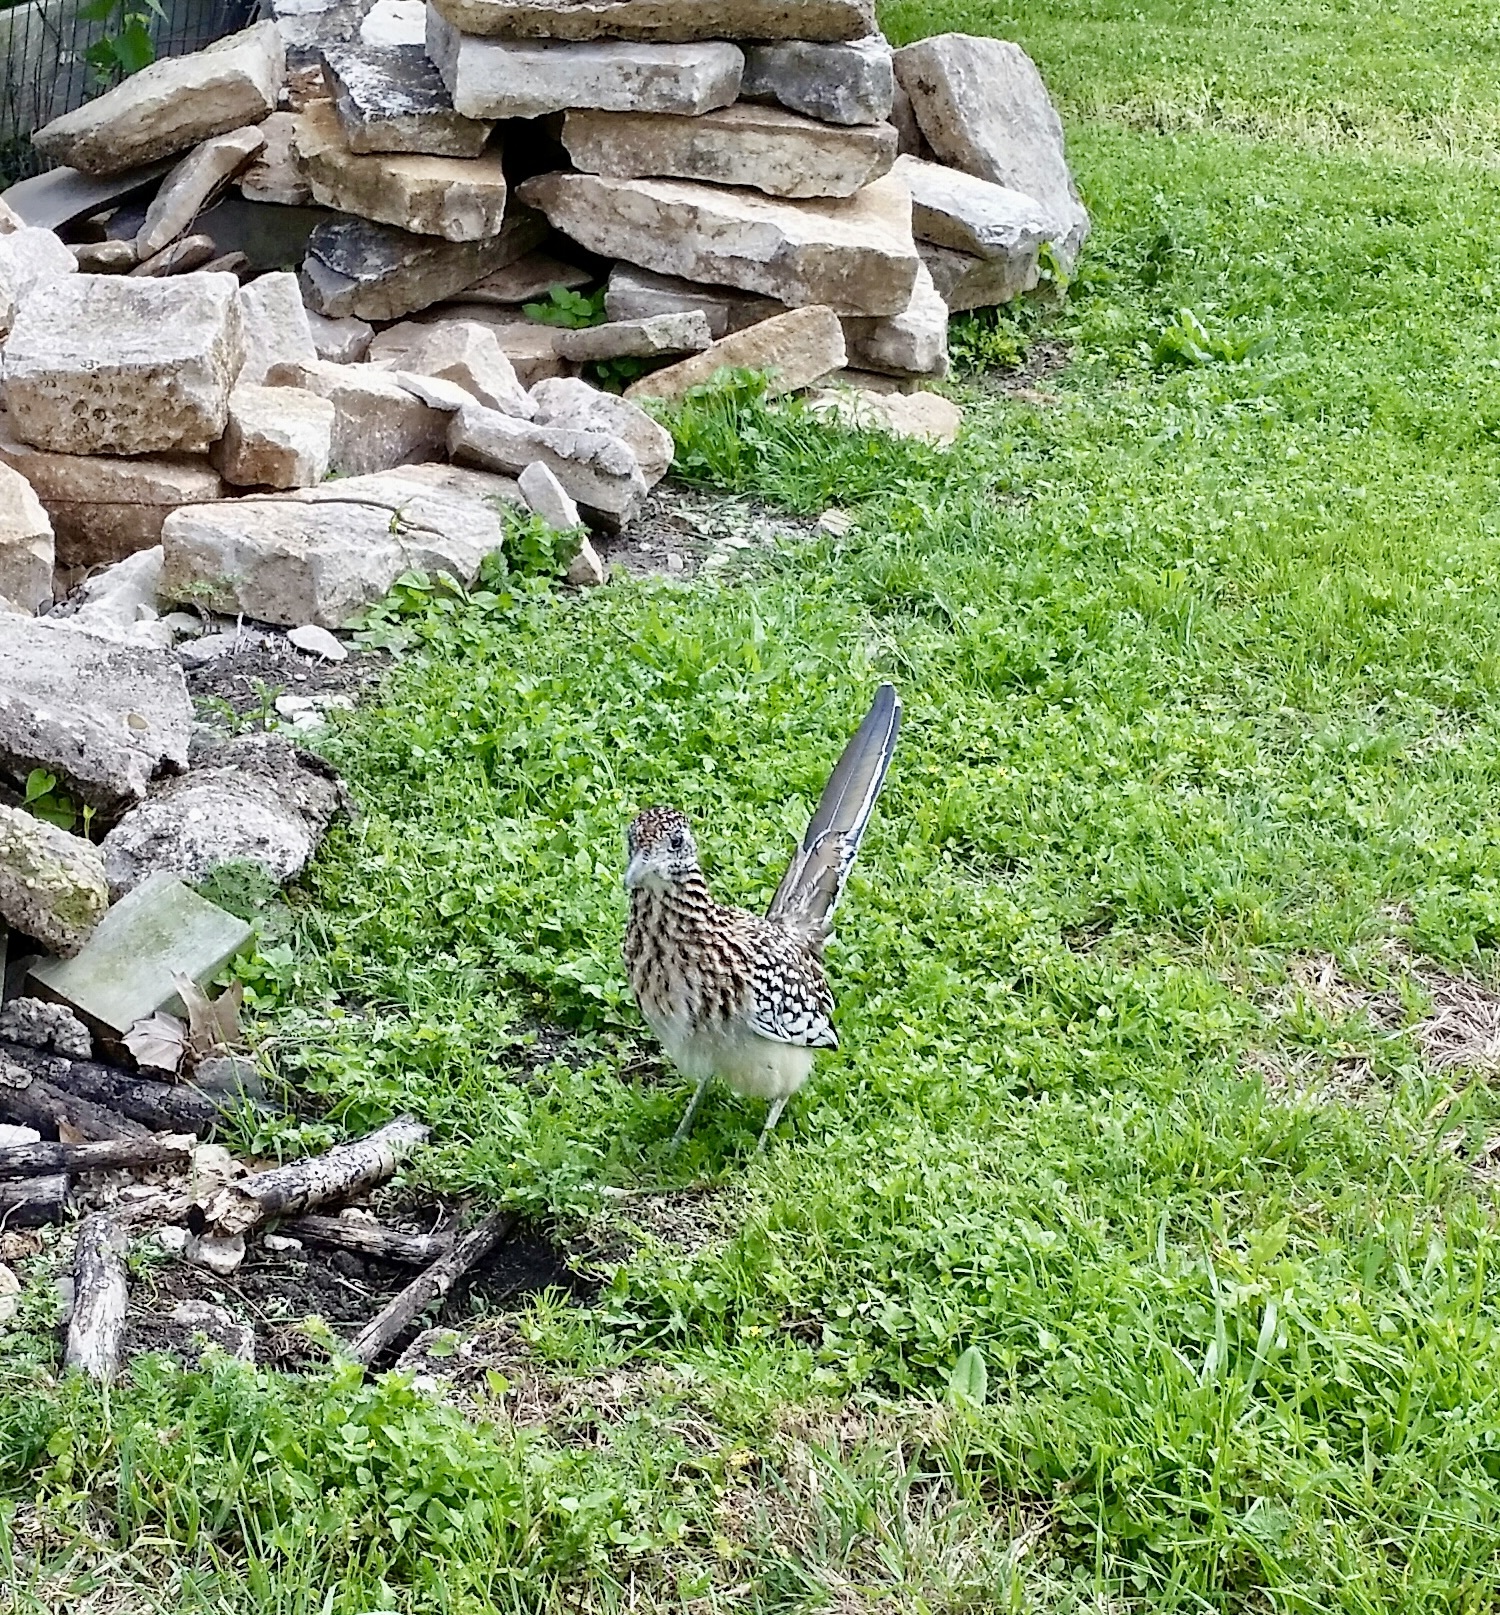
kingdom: Animalia
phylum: Chordata
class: Aves
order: Cuculiformes
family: Cuculidae
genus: Geococcyx
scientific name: Geococcyx californianus
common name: Greater roadrunner
